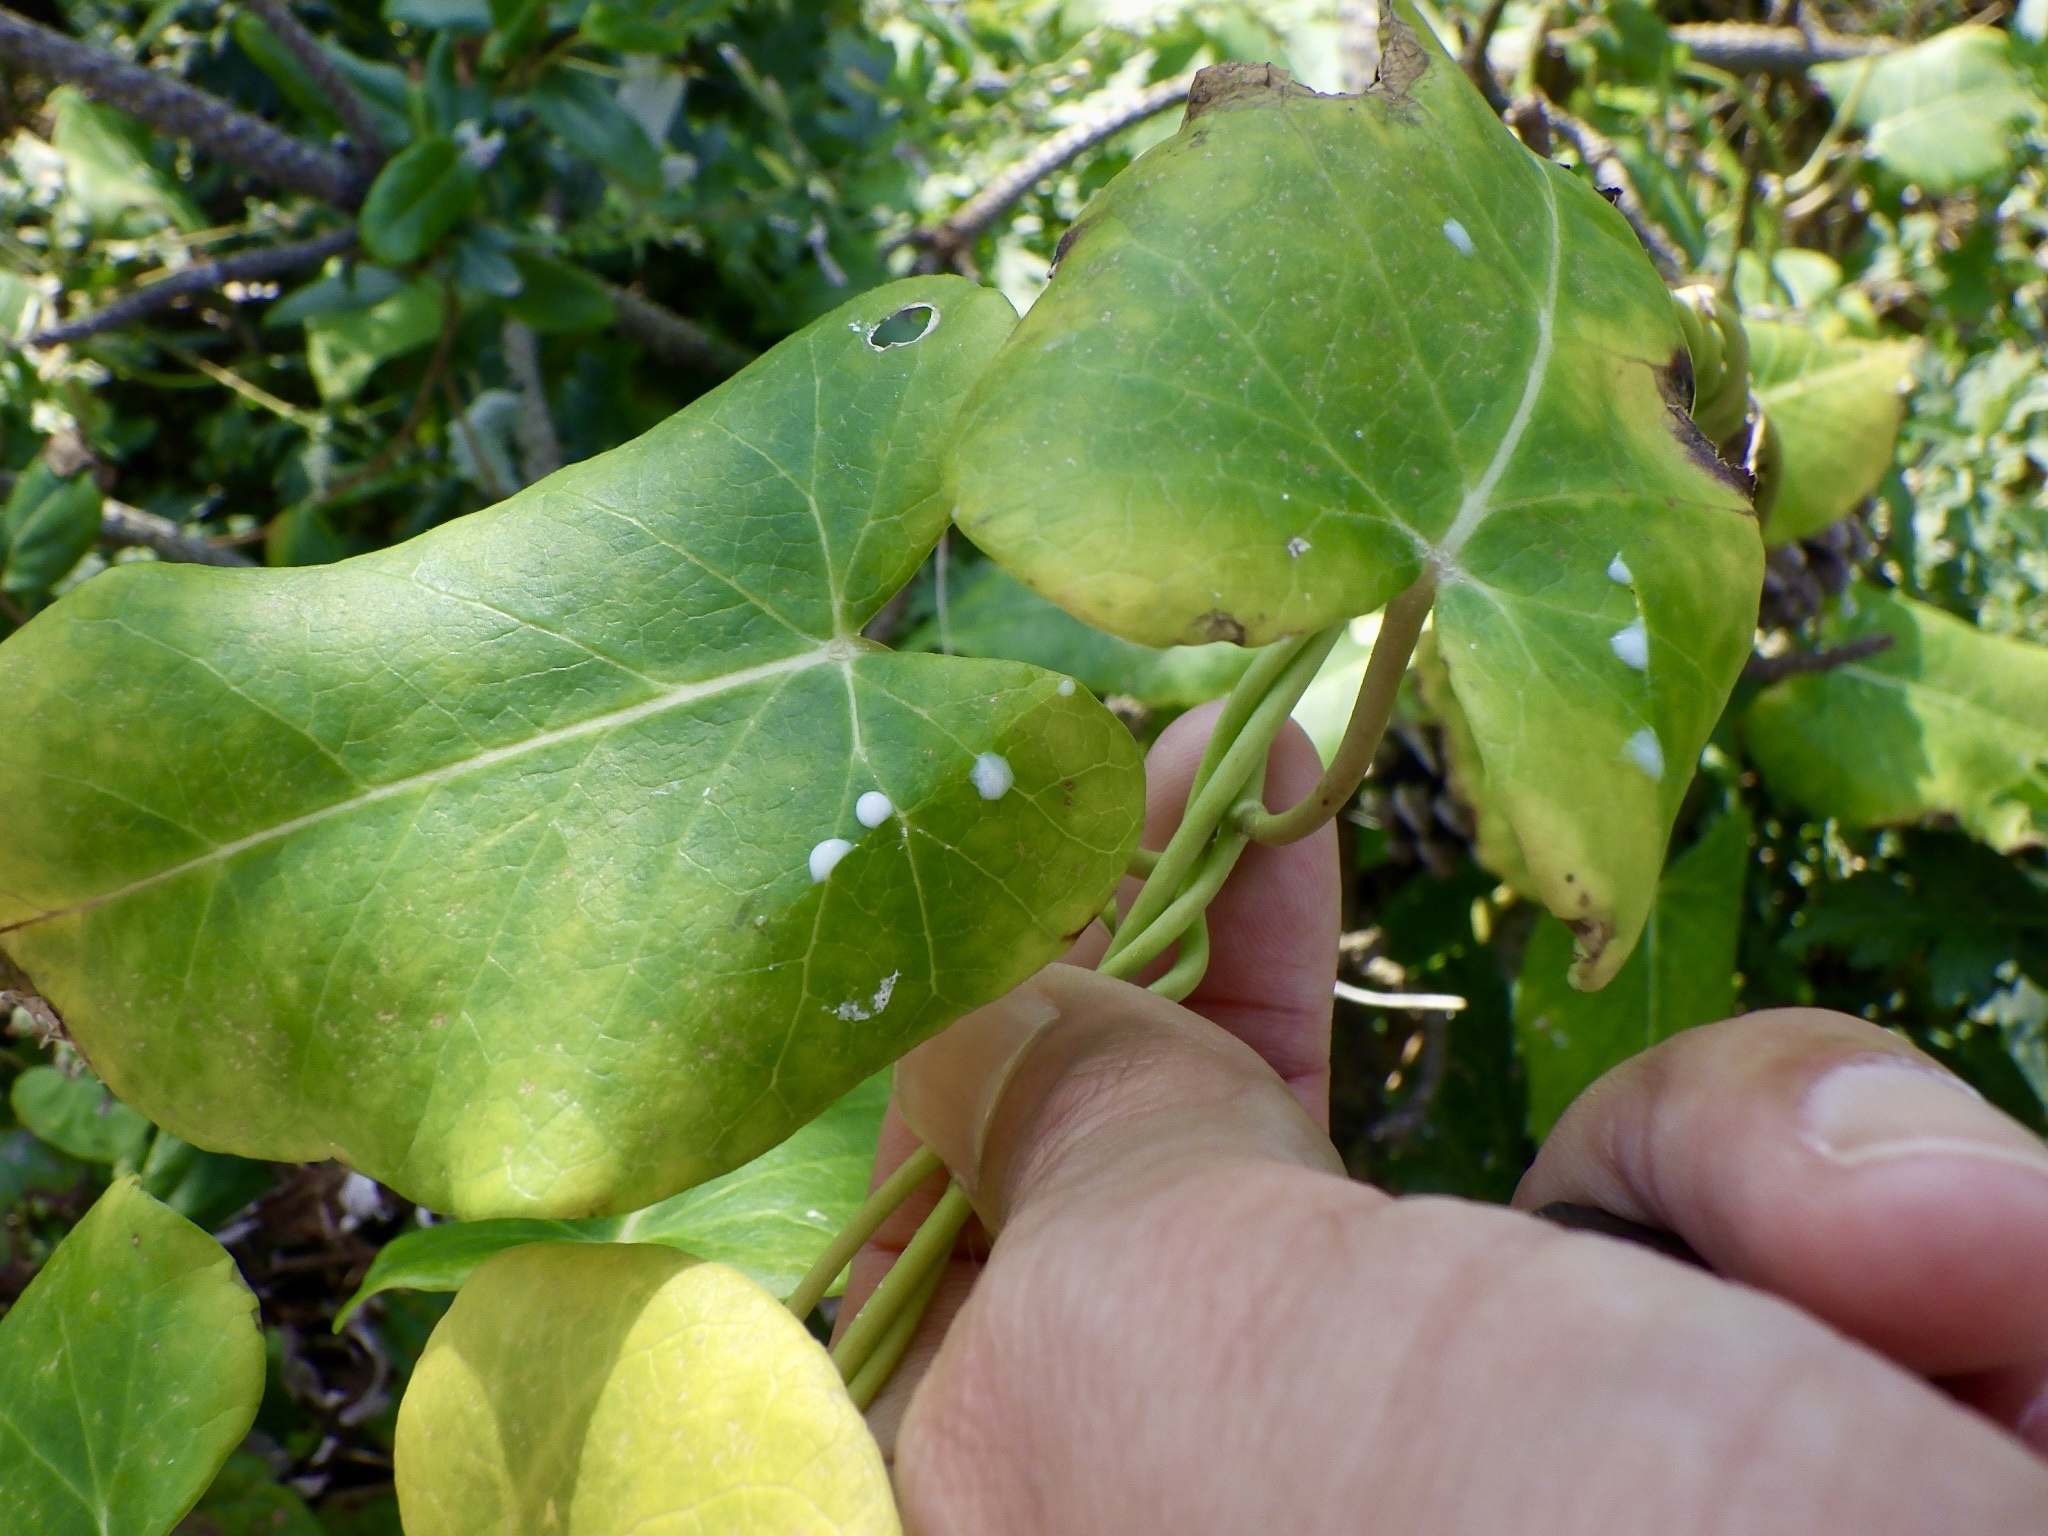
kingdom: Plantae
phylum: Tracheophyta
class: Magnoliopsida
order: Gentianales
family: Apocynaceae
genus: Cynanchum
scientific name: Cynanchum rostellatum
